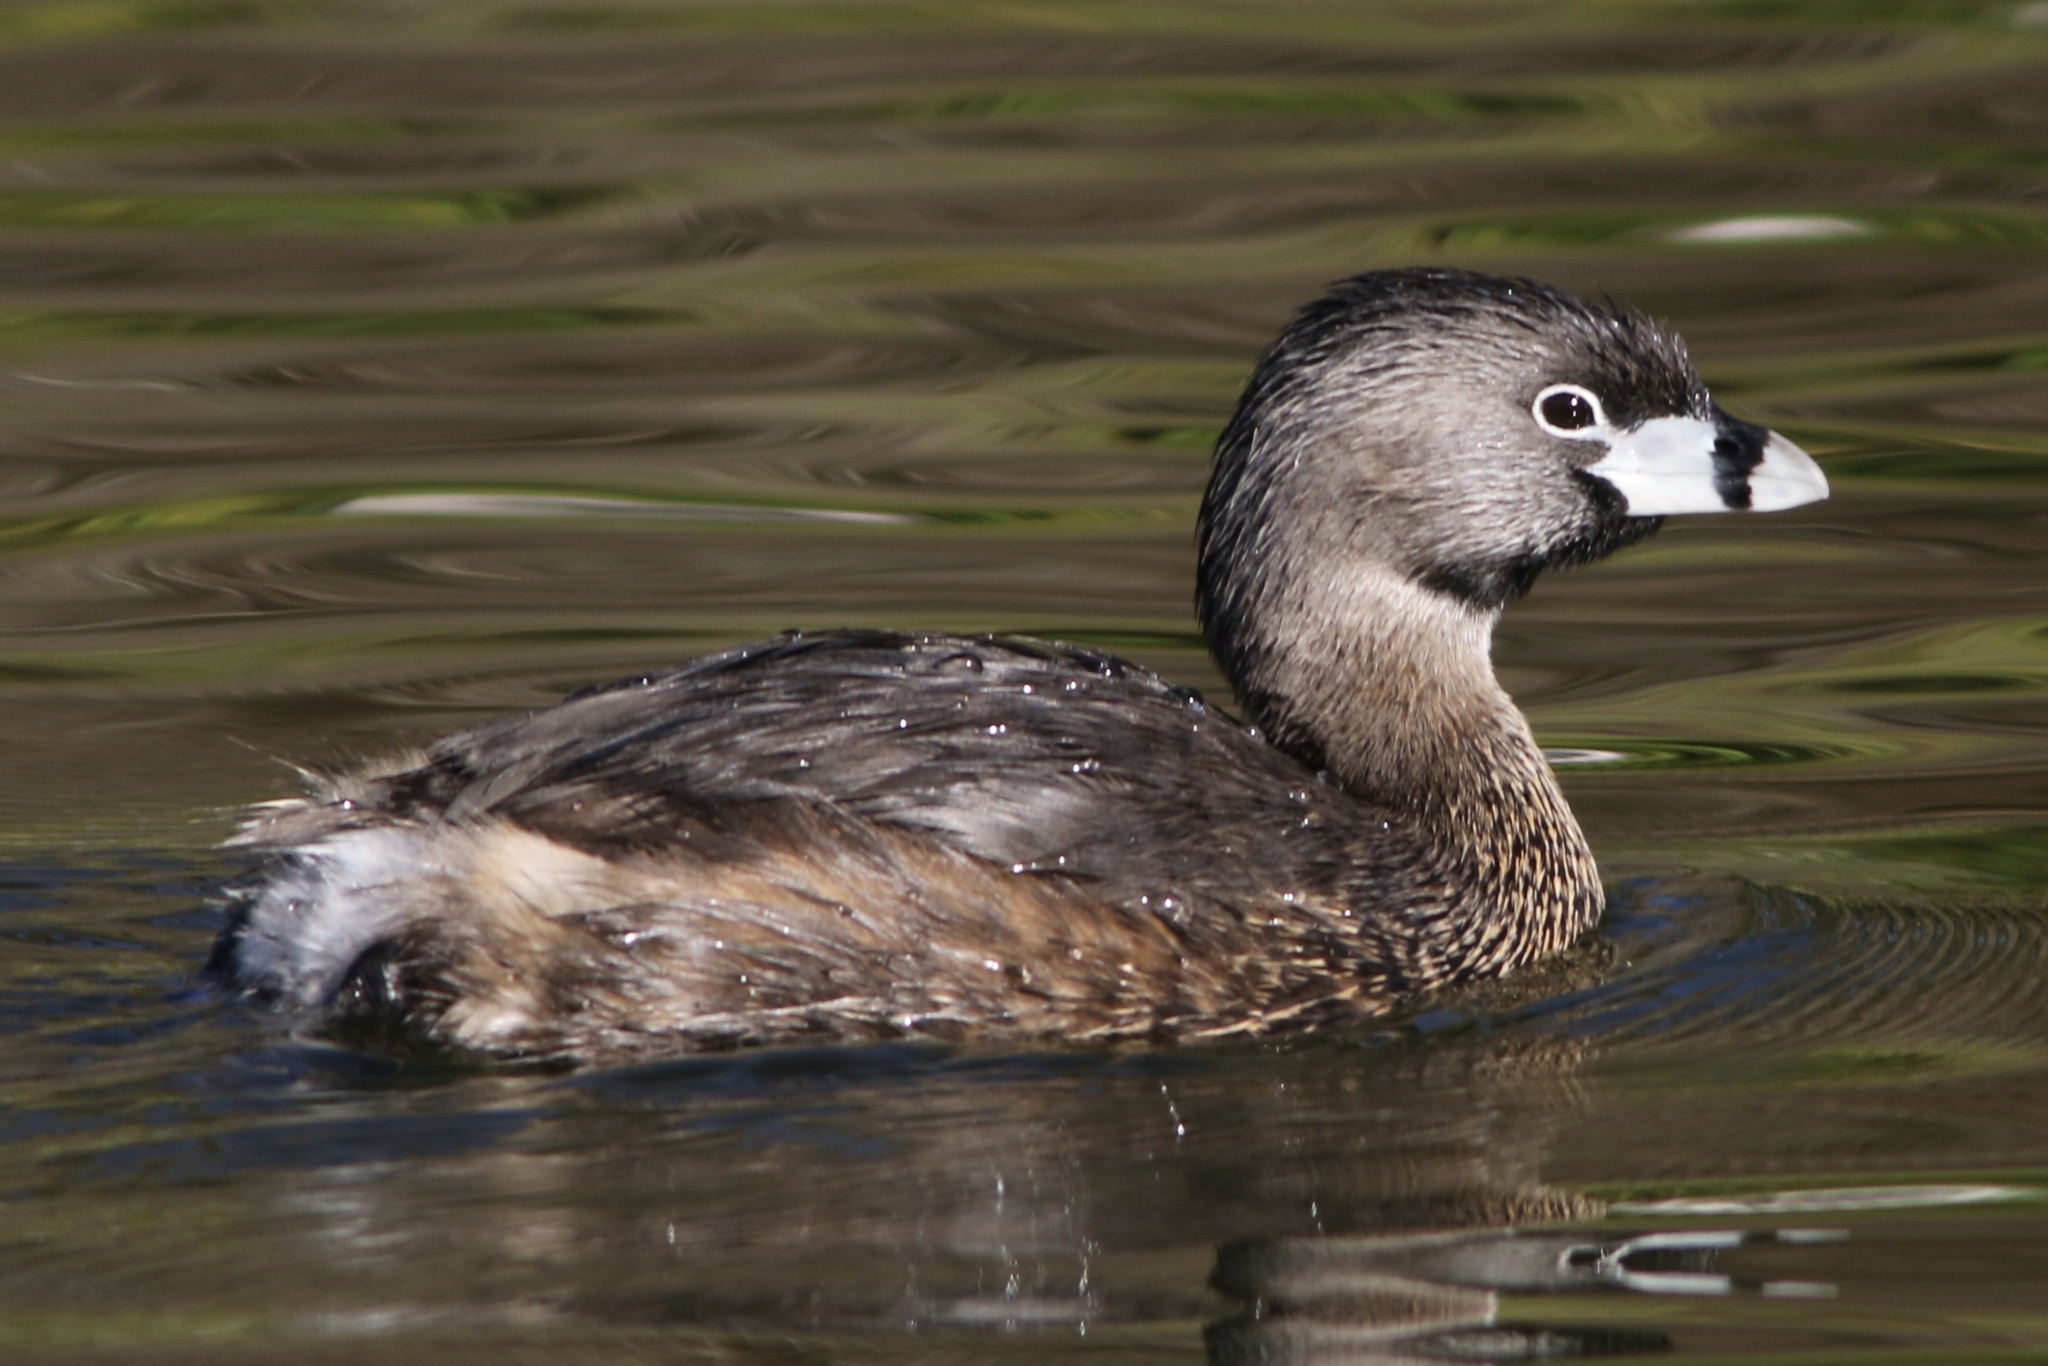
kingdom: Animalia
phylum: Chordata
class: Aves
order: Podicipediformes
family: Podicipedidae
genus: Podilymbus
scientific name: Podilymbus podiceps
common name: Pied-billed grebe
